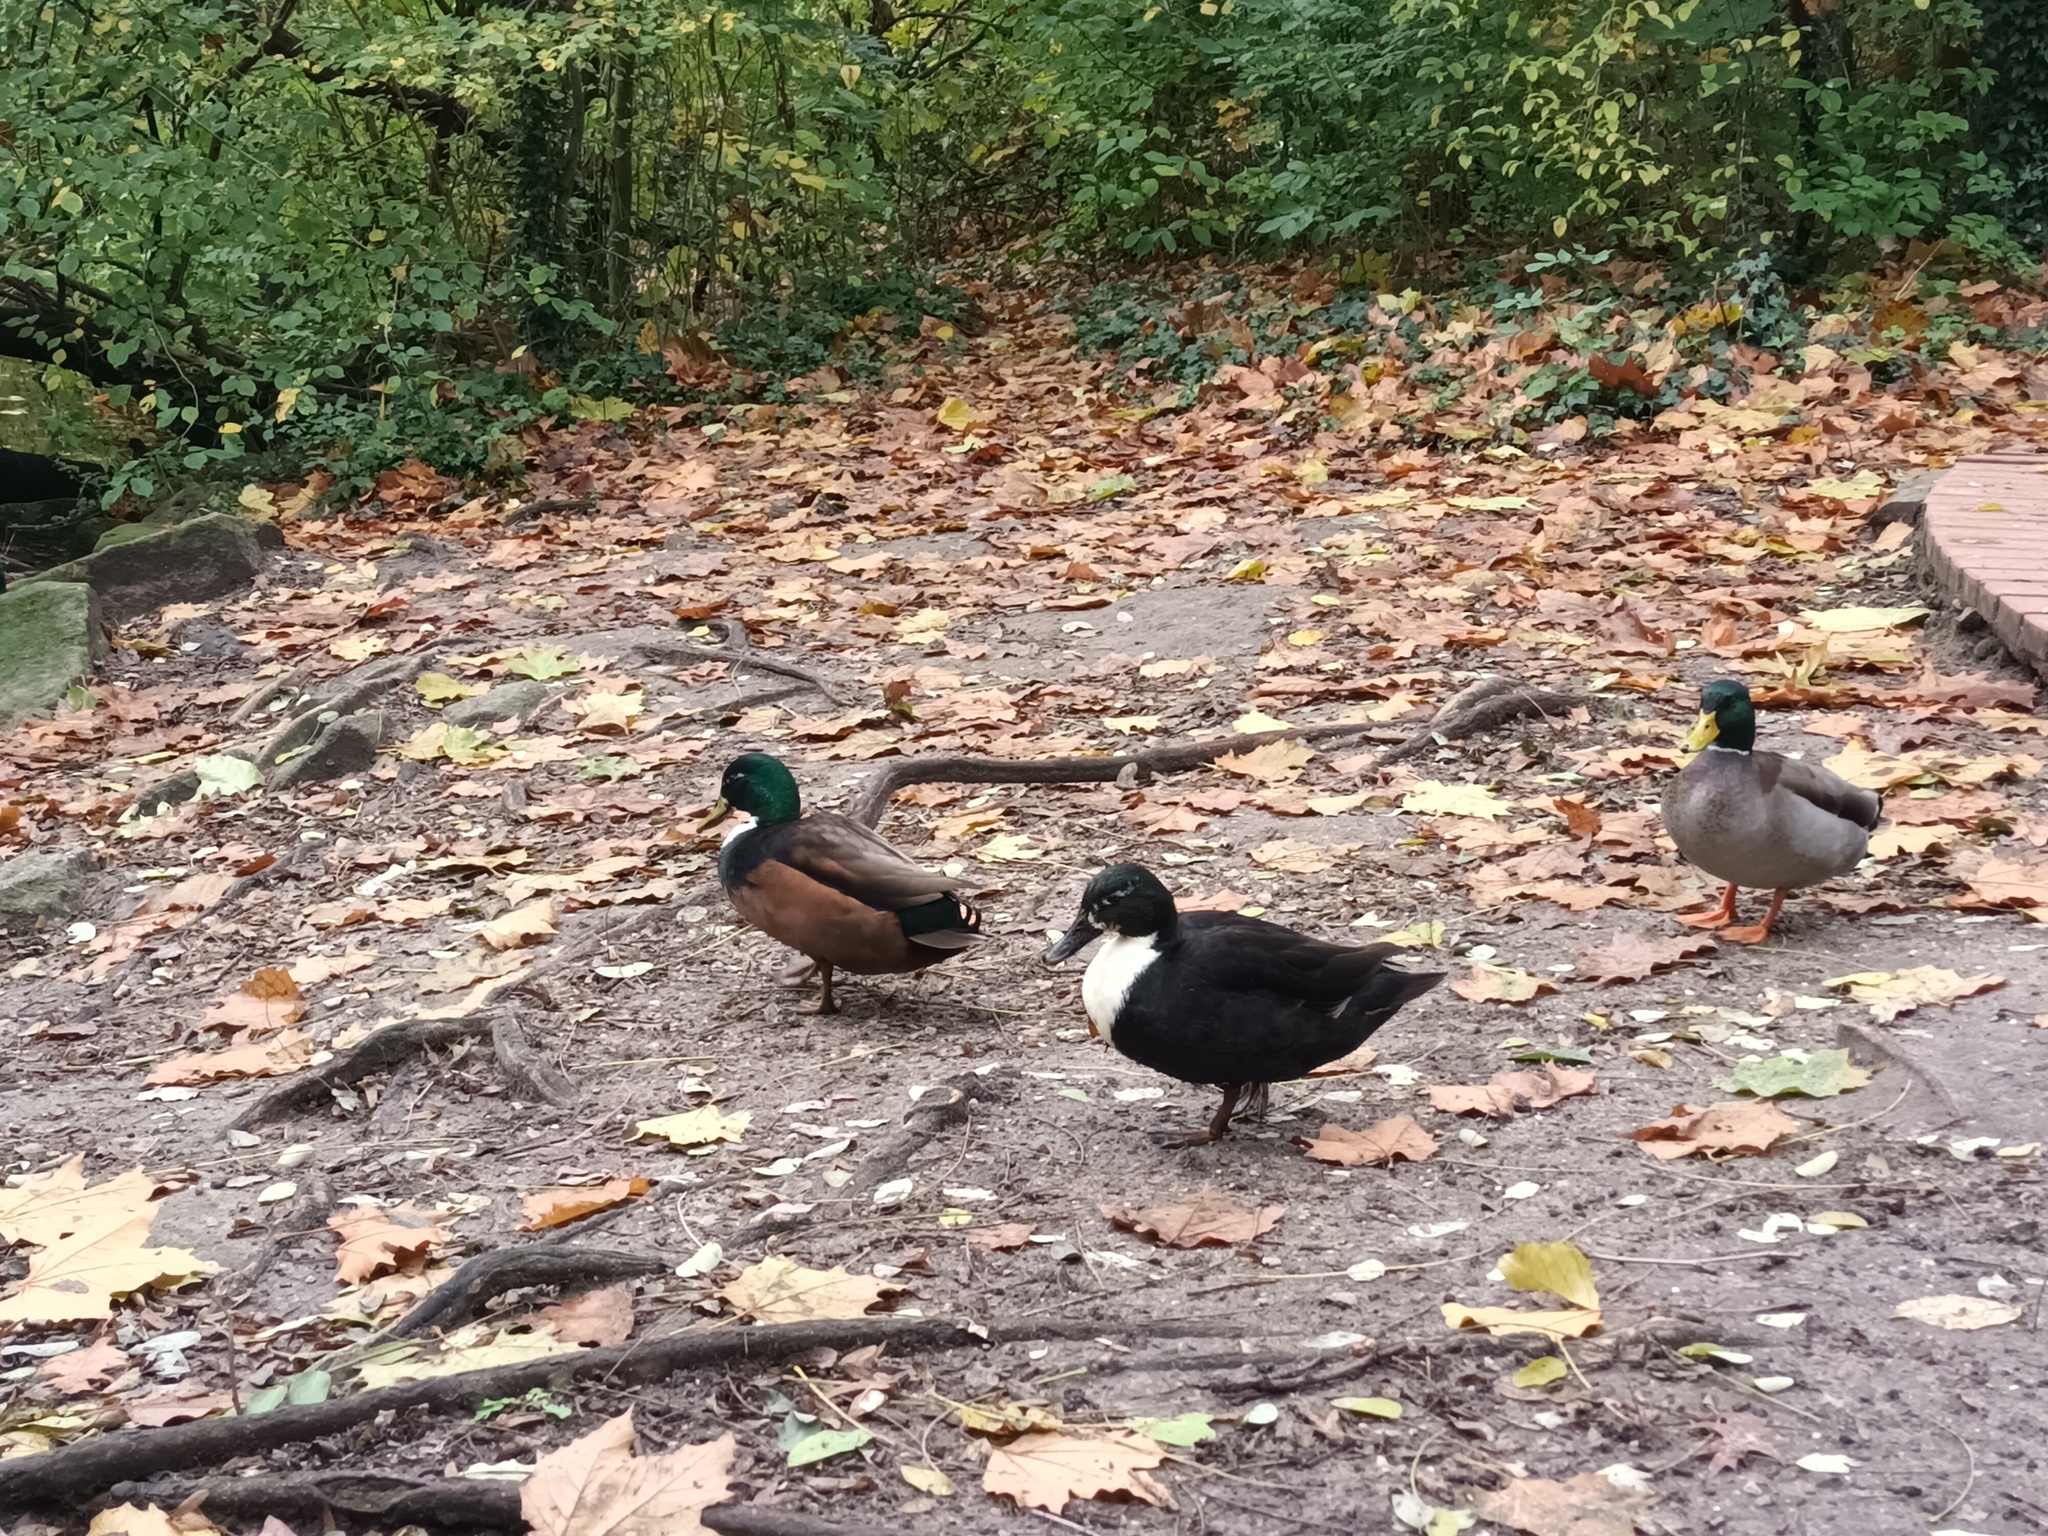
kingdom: Animalia
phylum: Chordata
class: Aves
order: Anseriformes
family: Anatidae
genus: Anas
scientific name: Anas platyrhynchos
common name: Mallard
